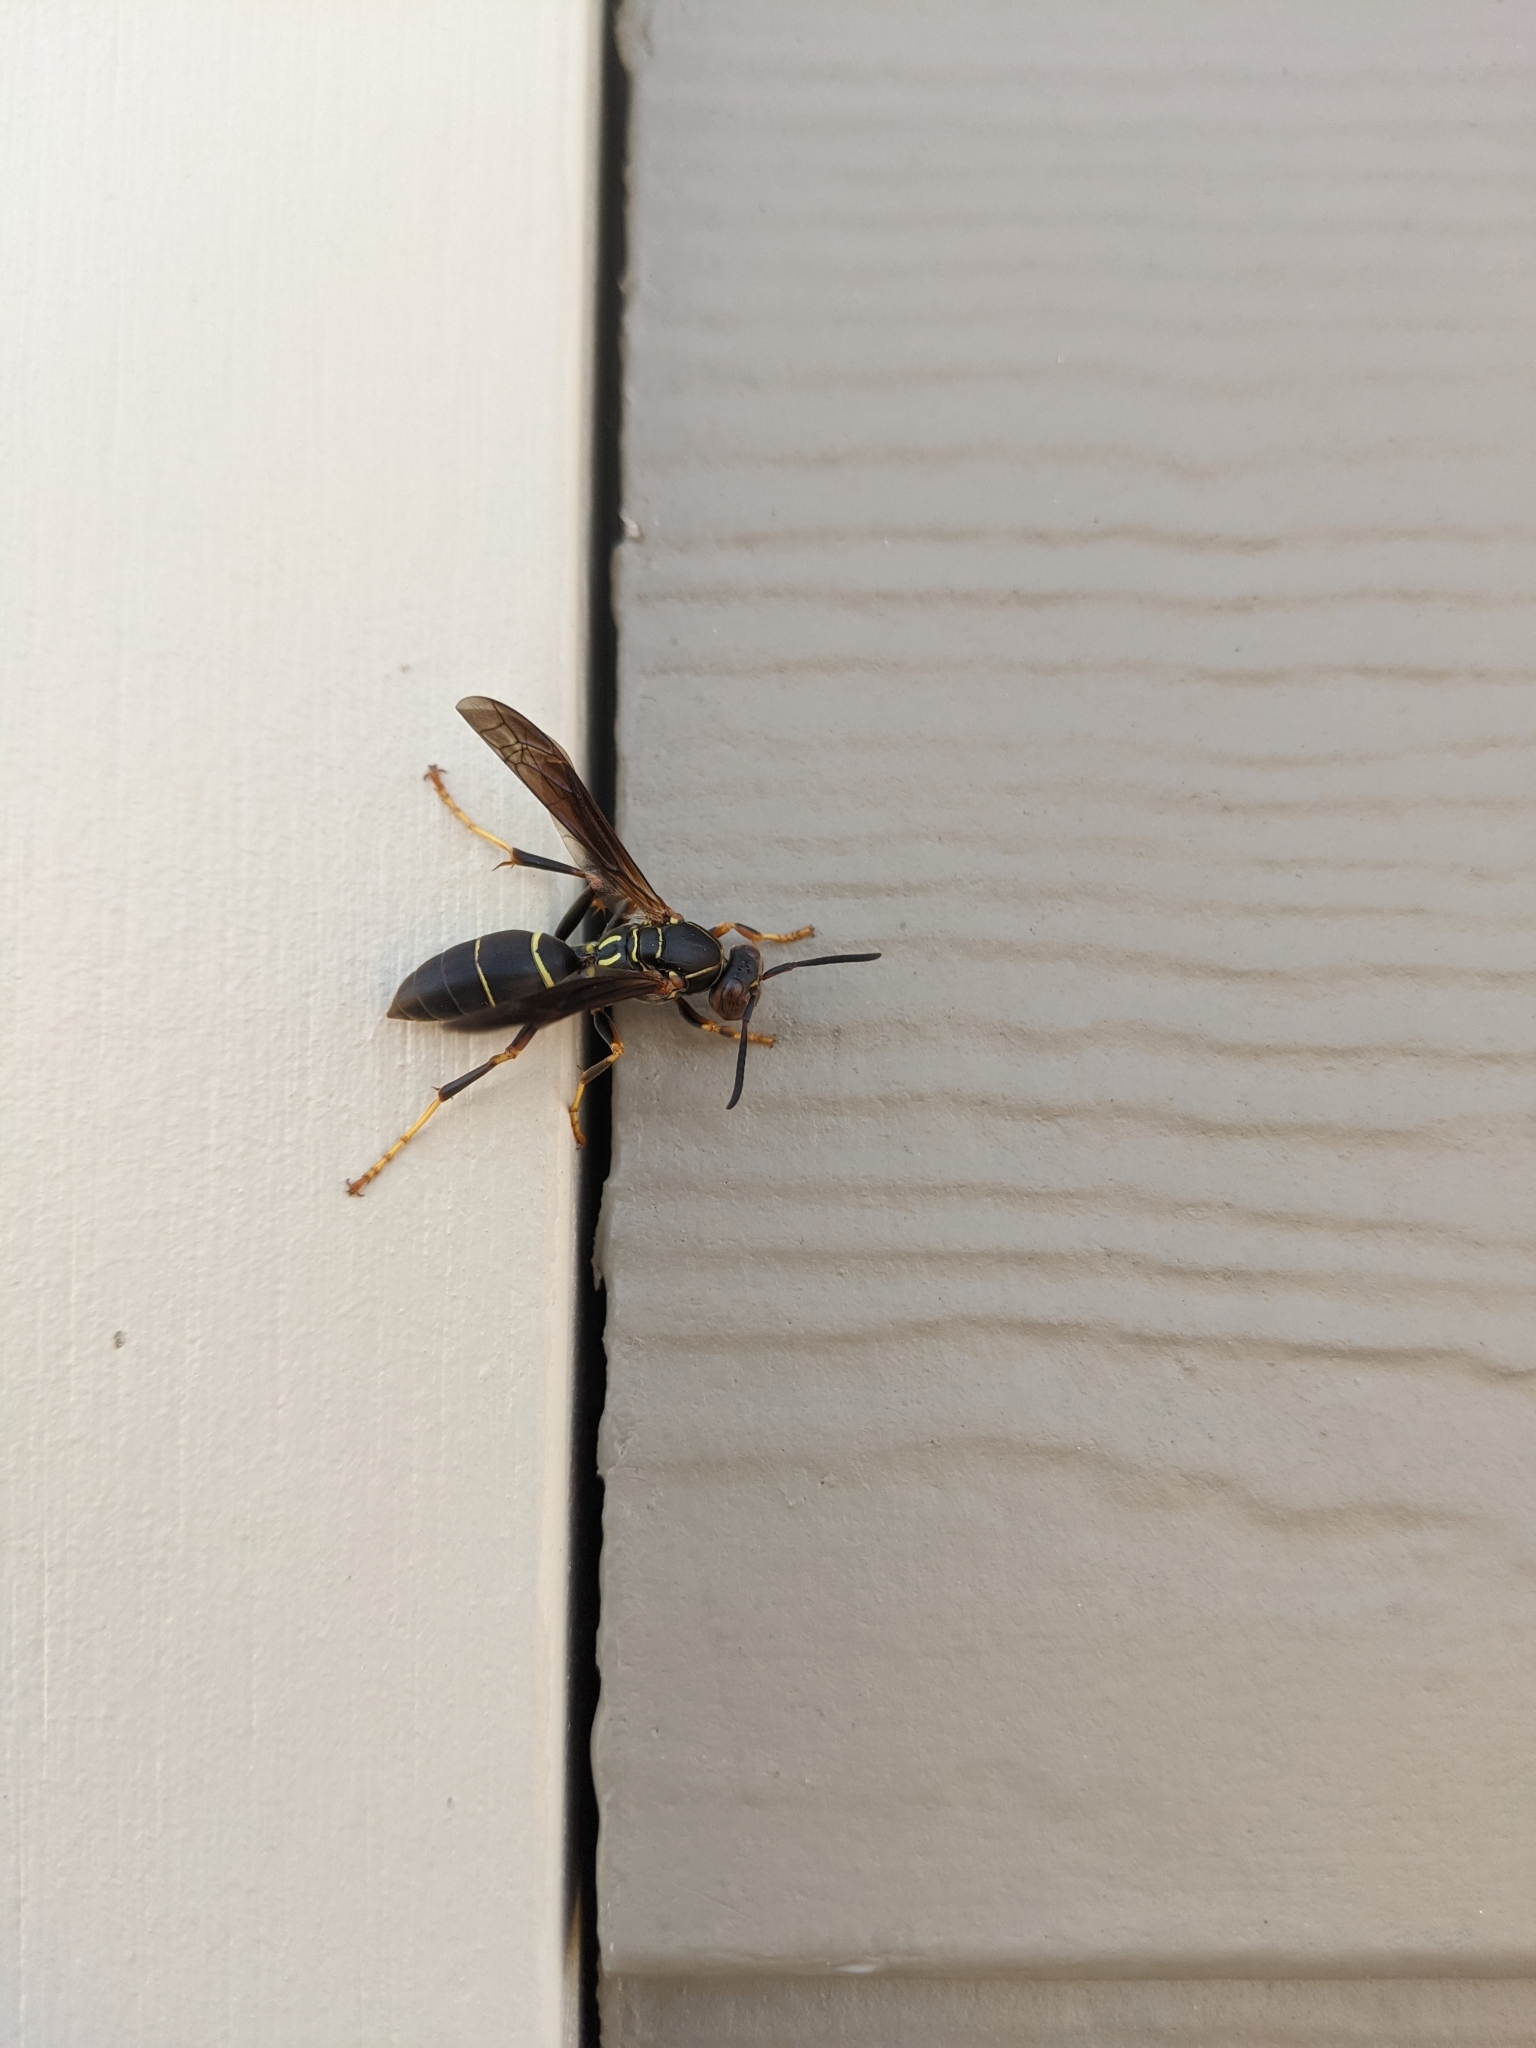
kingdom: Animalia
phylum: Arthropoda
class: Insecta
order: Hymenoptera
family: Eumenidae
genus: Polistes
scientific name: Polistes fuscatus
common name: Dark paper wasp
